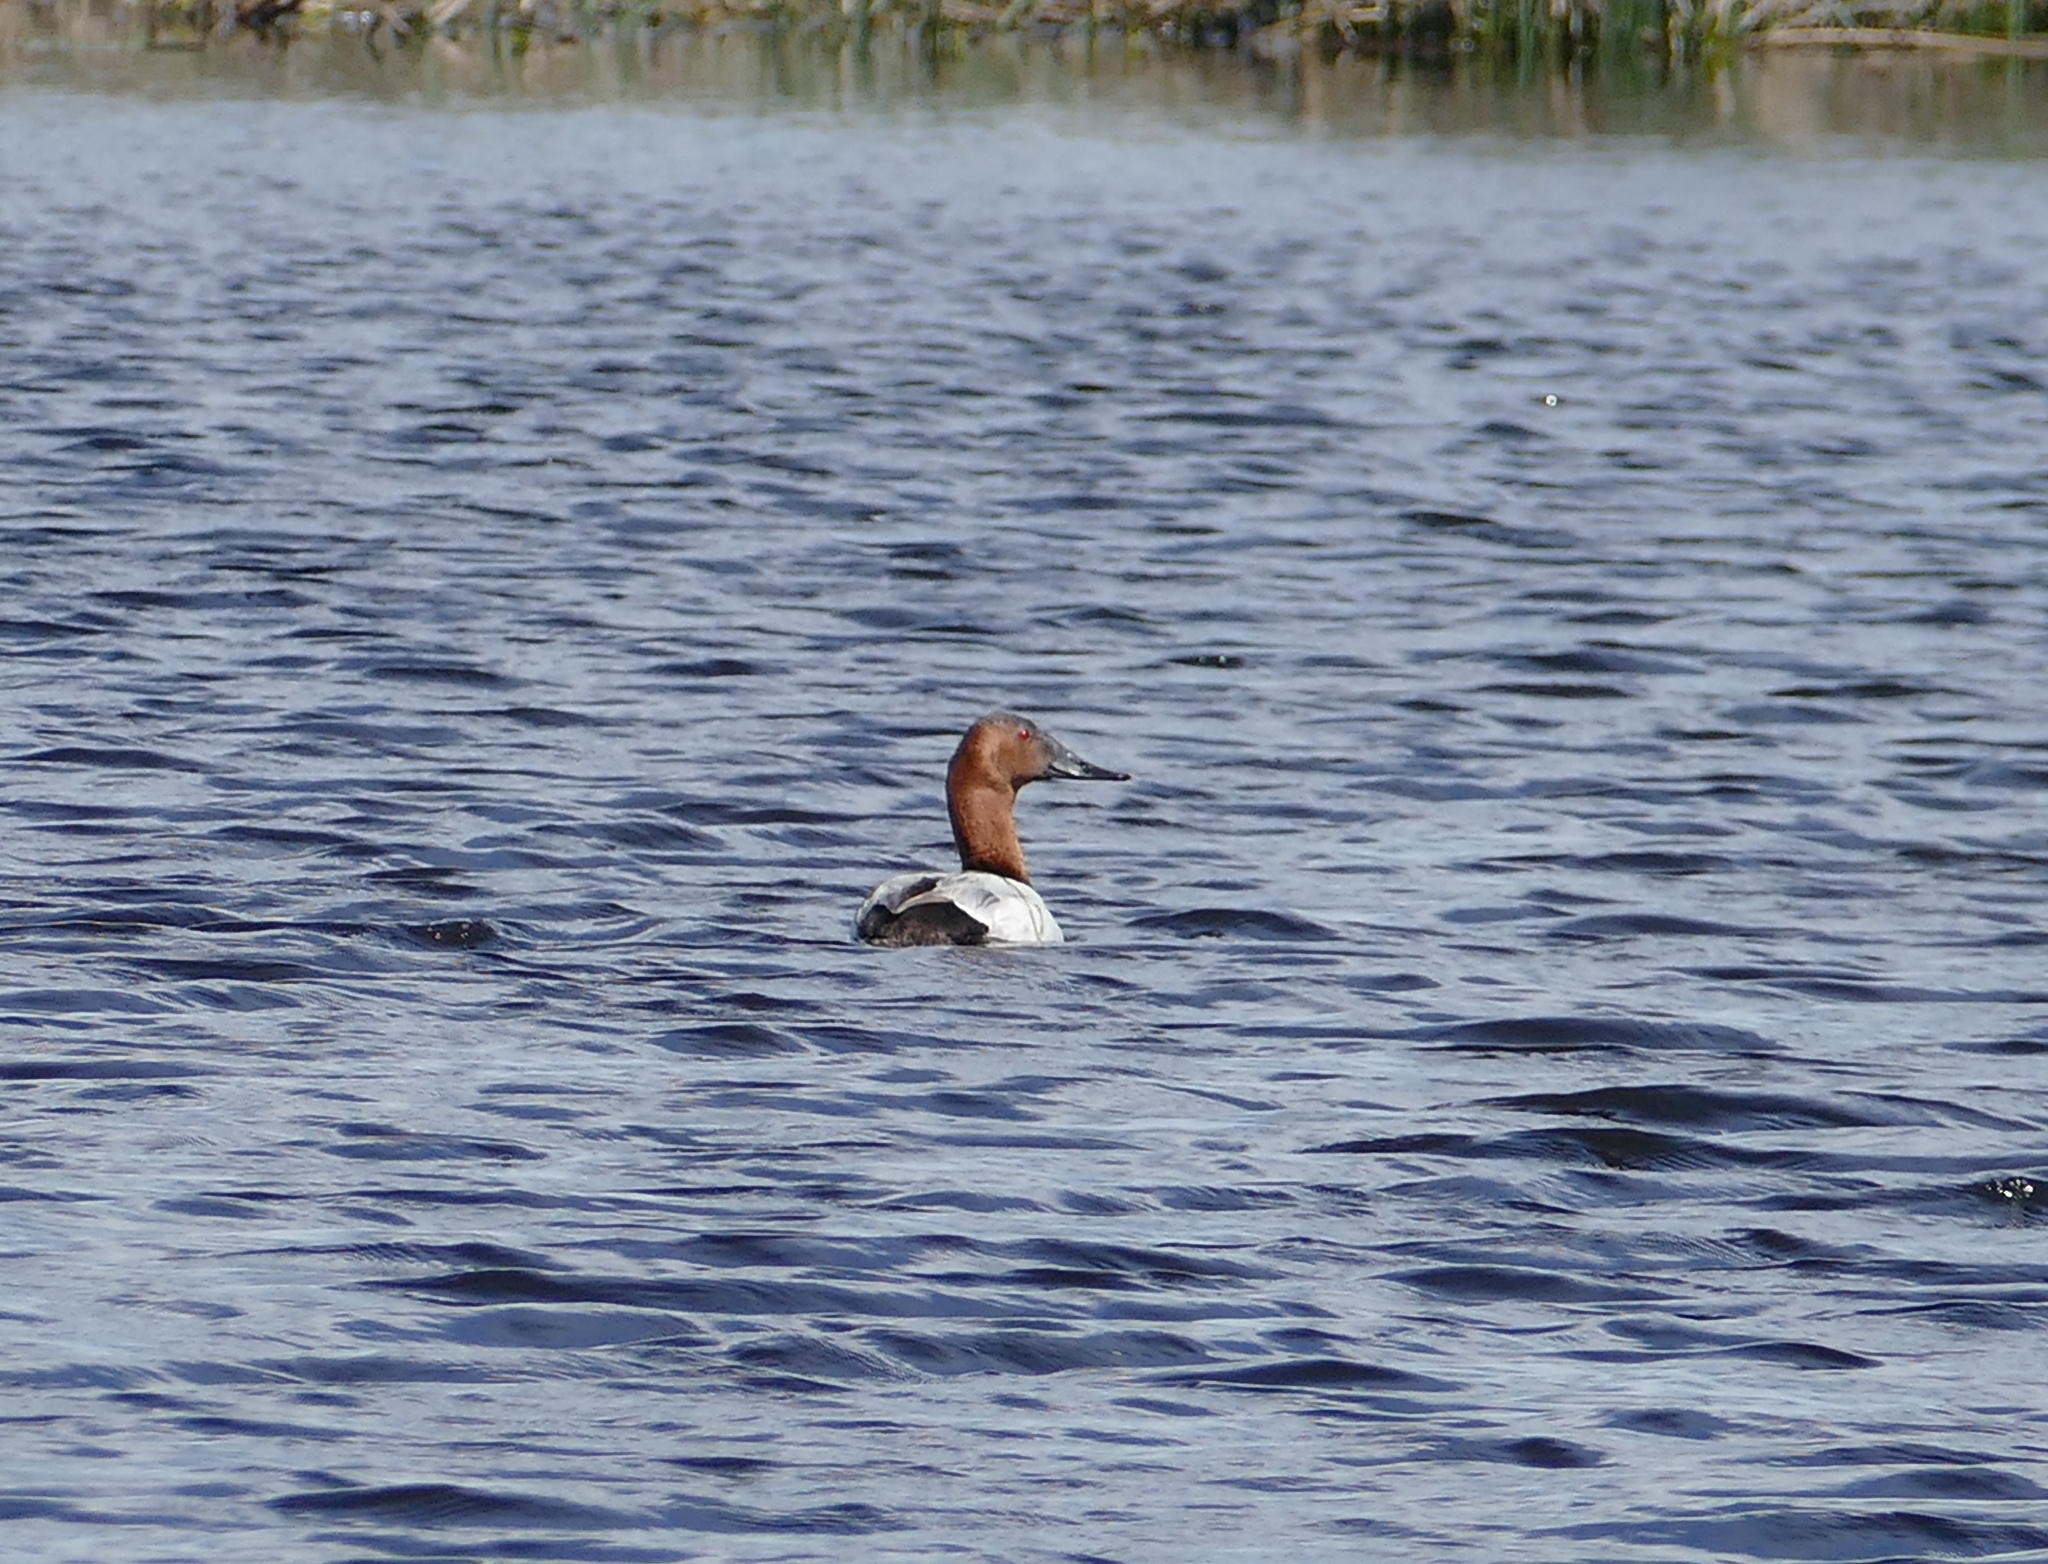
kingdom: Animalia
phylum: Chordata
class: Aves
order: Anseriformes
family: Anatidae
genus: Aythya
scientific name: Aythya valisineria
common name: Canvasback
